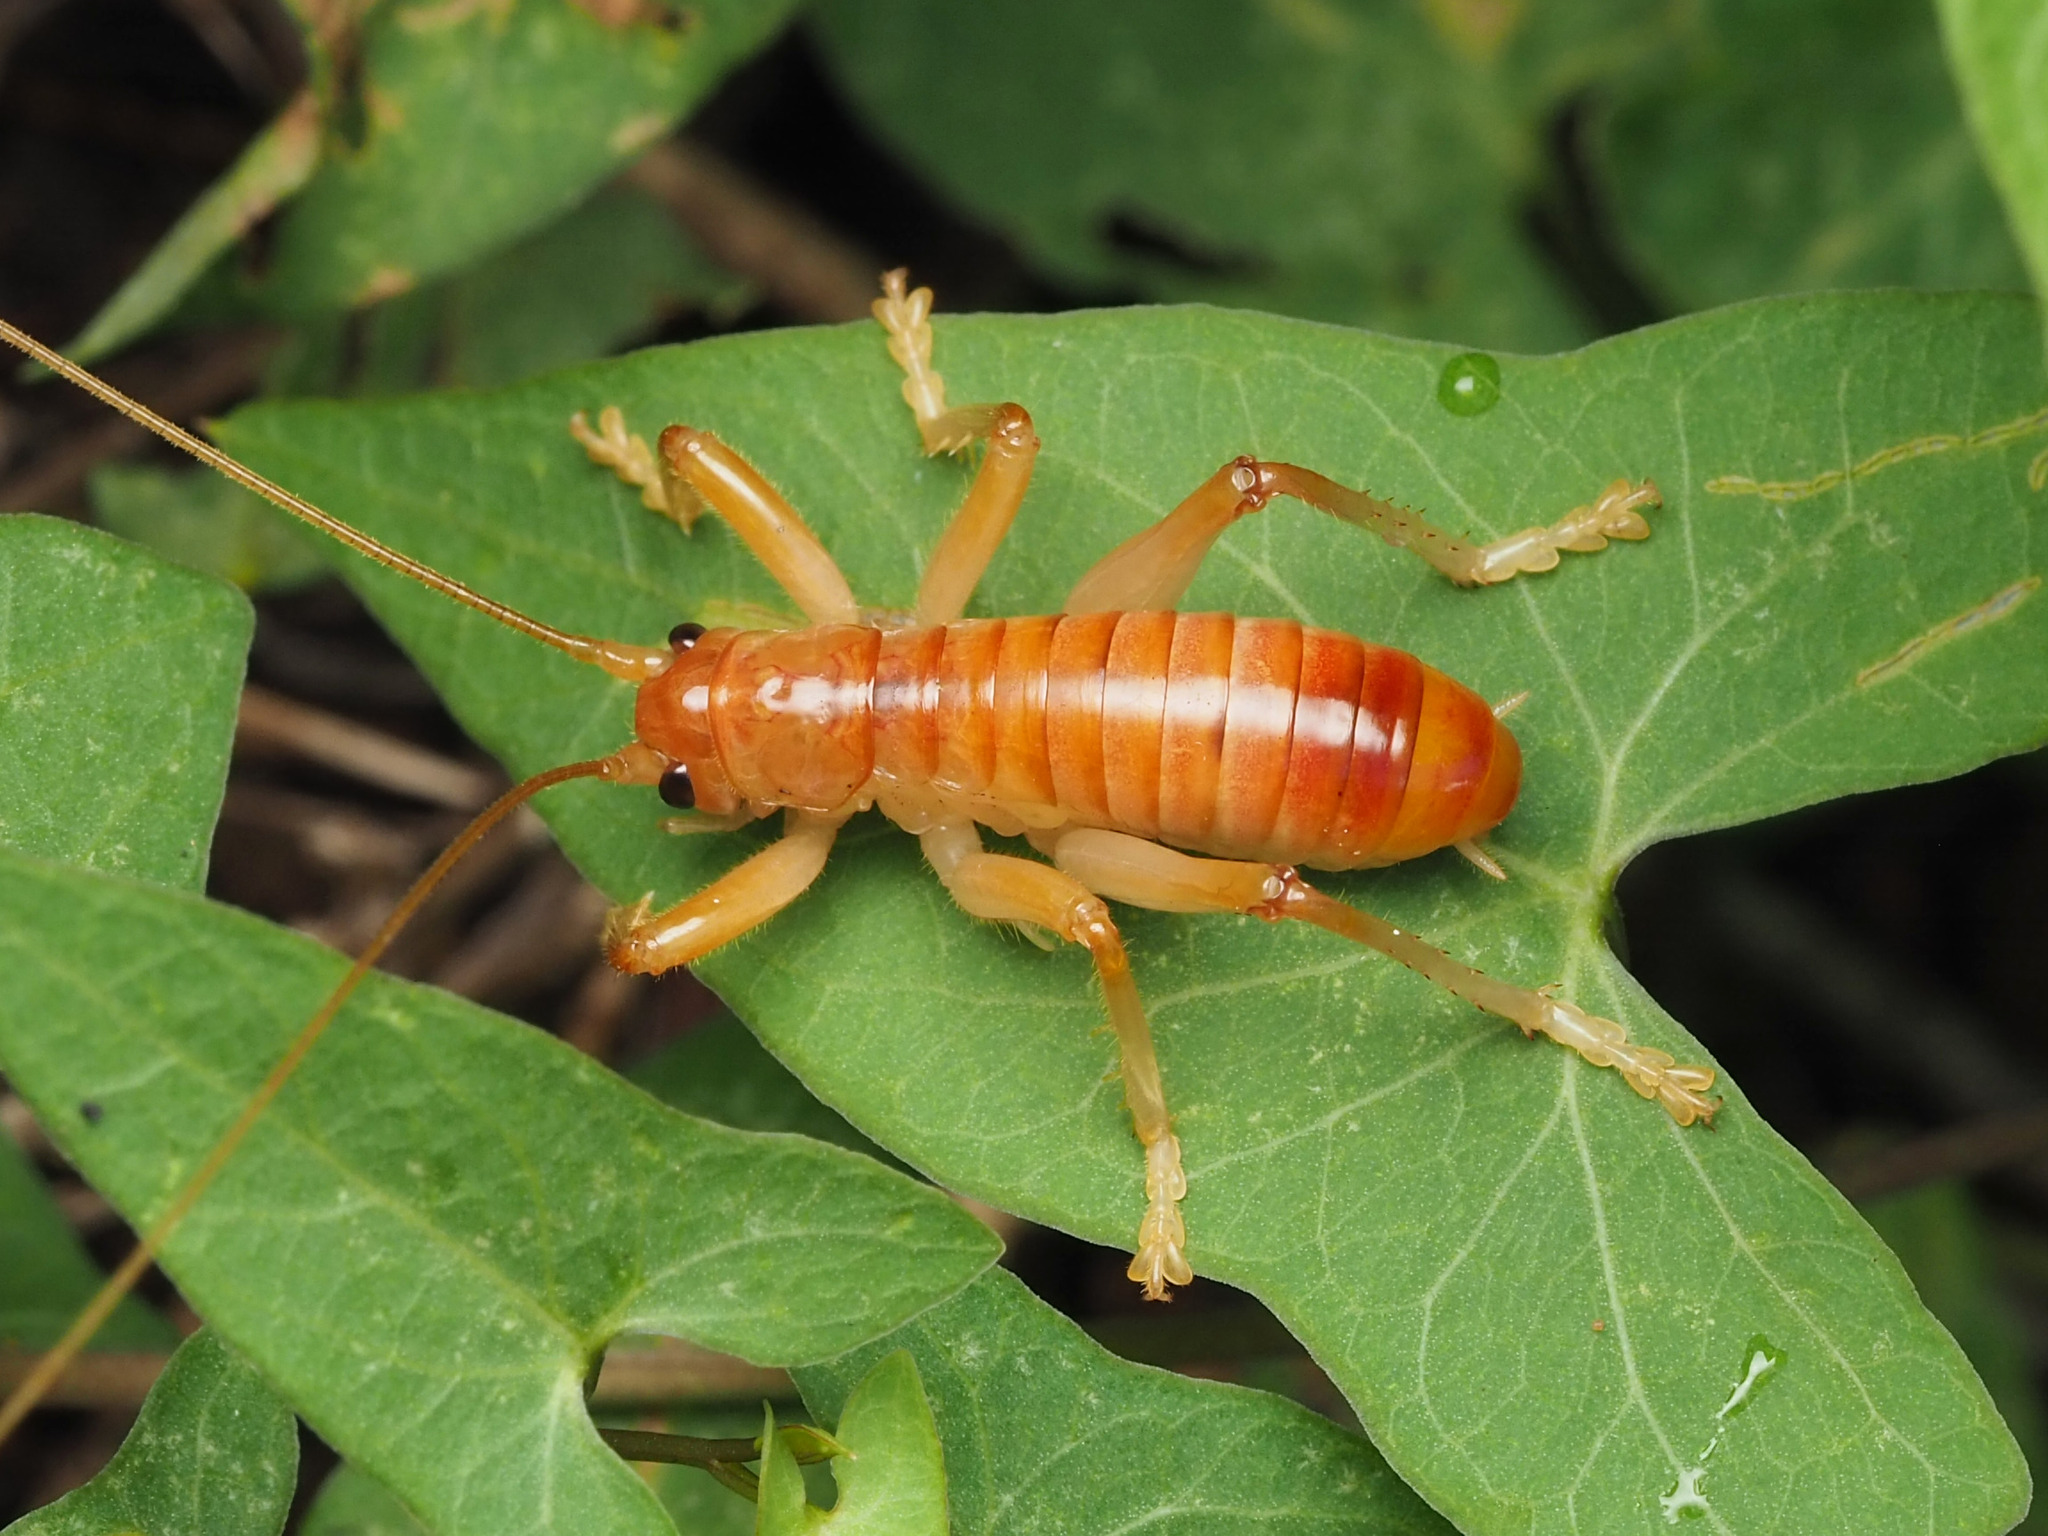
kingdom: Animalia
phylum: Arthropoda
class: Insecta
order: Orthoptera
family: Gryllacrididae
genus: Camptonotus
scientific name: Camptonotus carolinensis
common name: Carolina leaf-roller
